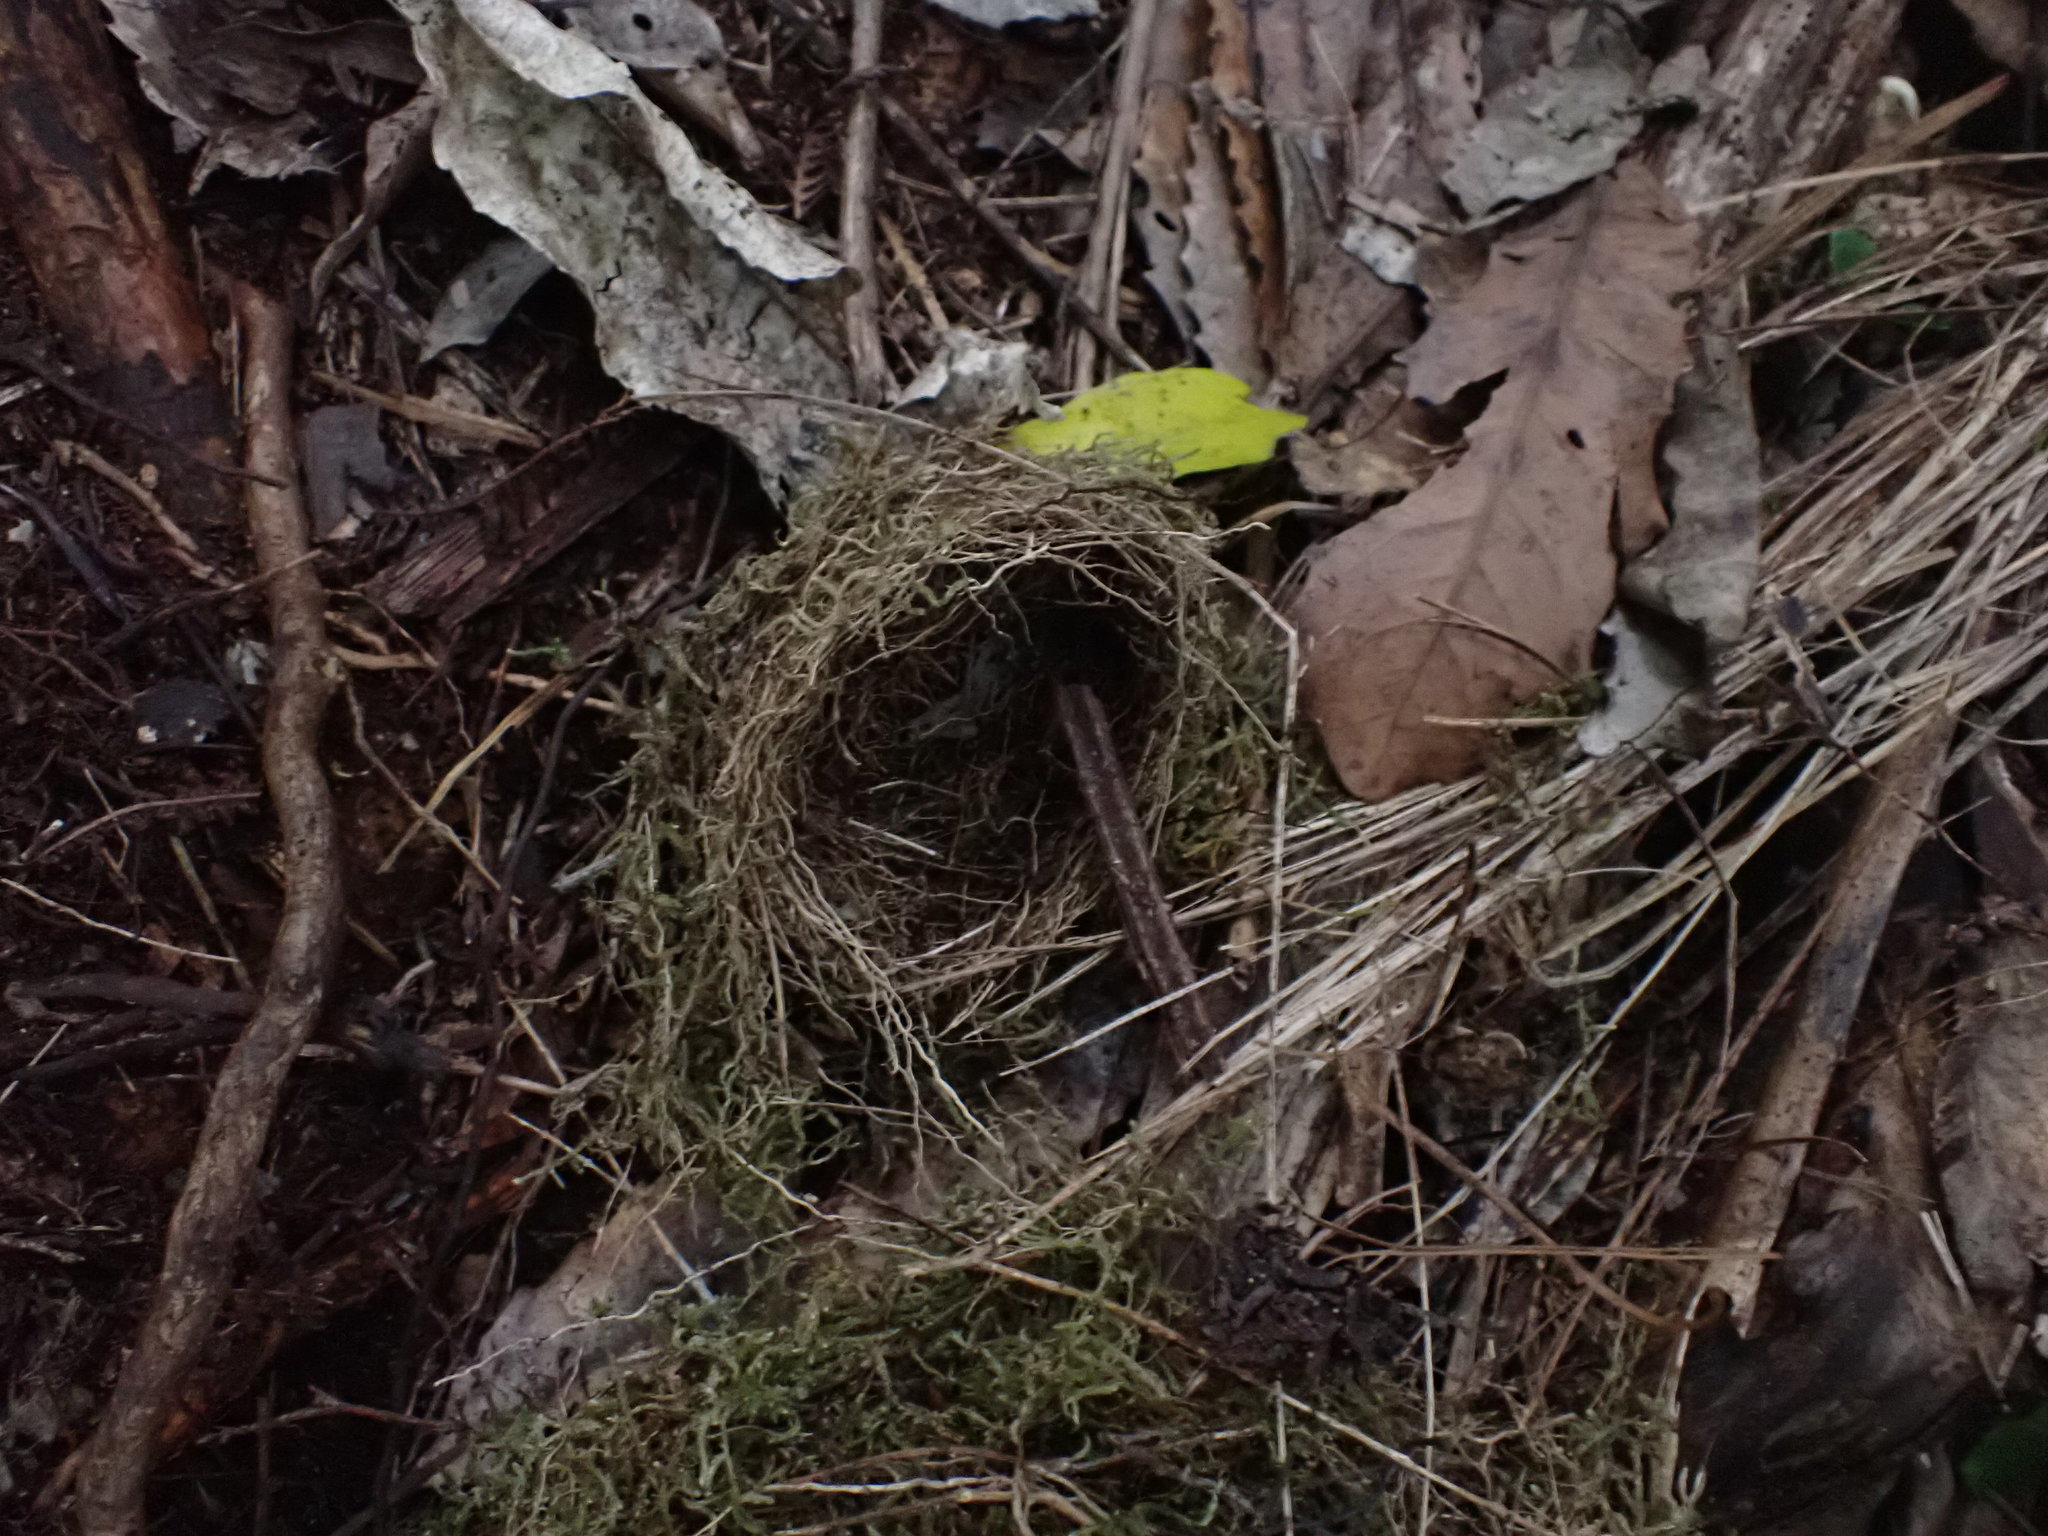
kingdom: Animalia
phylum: Chordata
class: Aves
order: Passeriformes
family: Zosteropidae
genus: Zosterops
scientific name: Zosterops lateralis
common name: Silvereye
